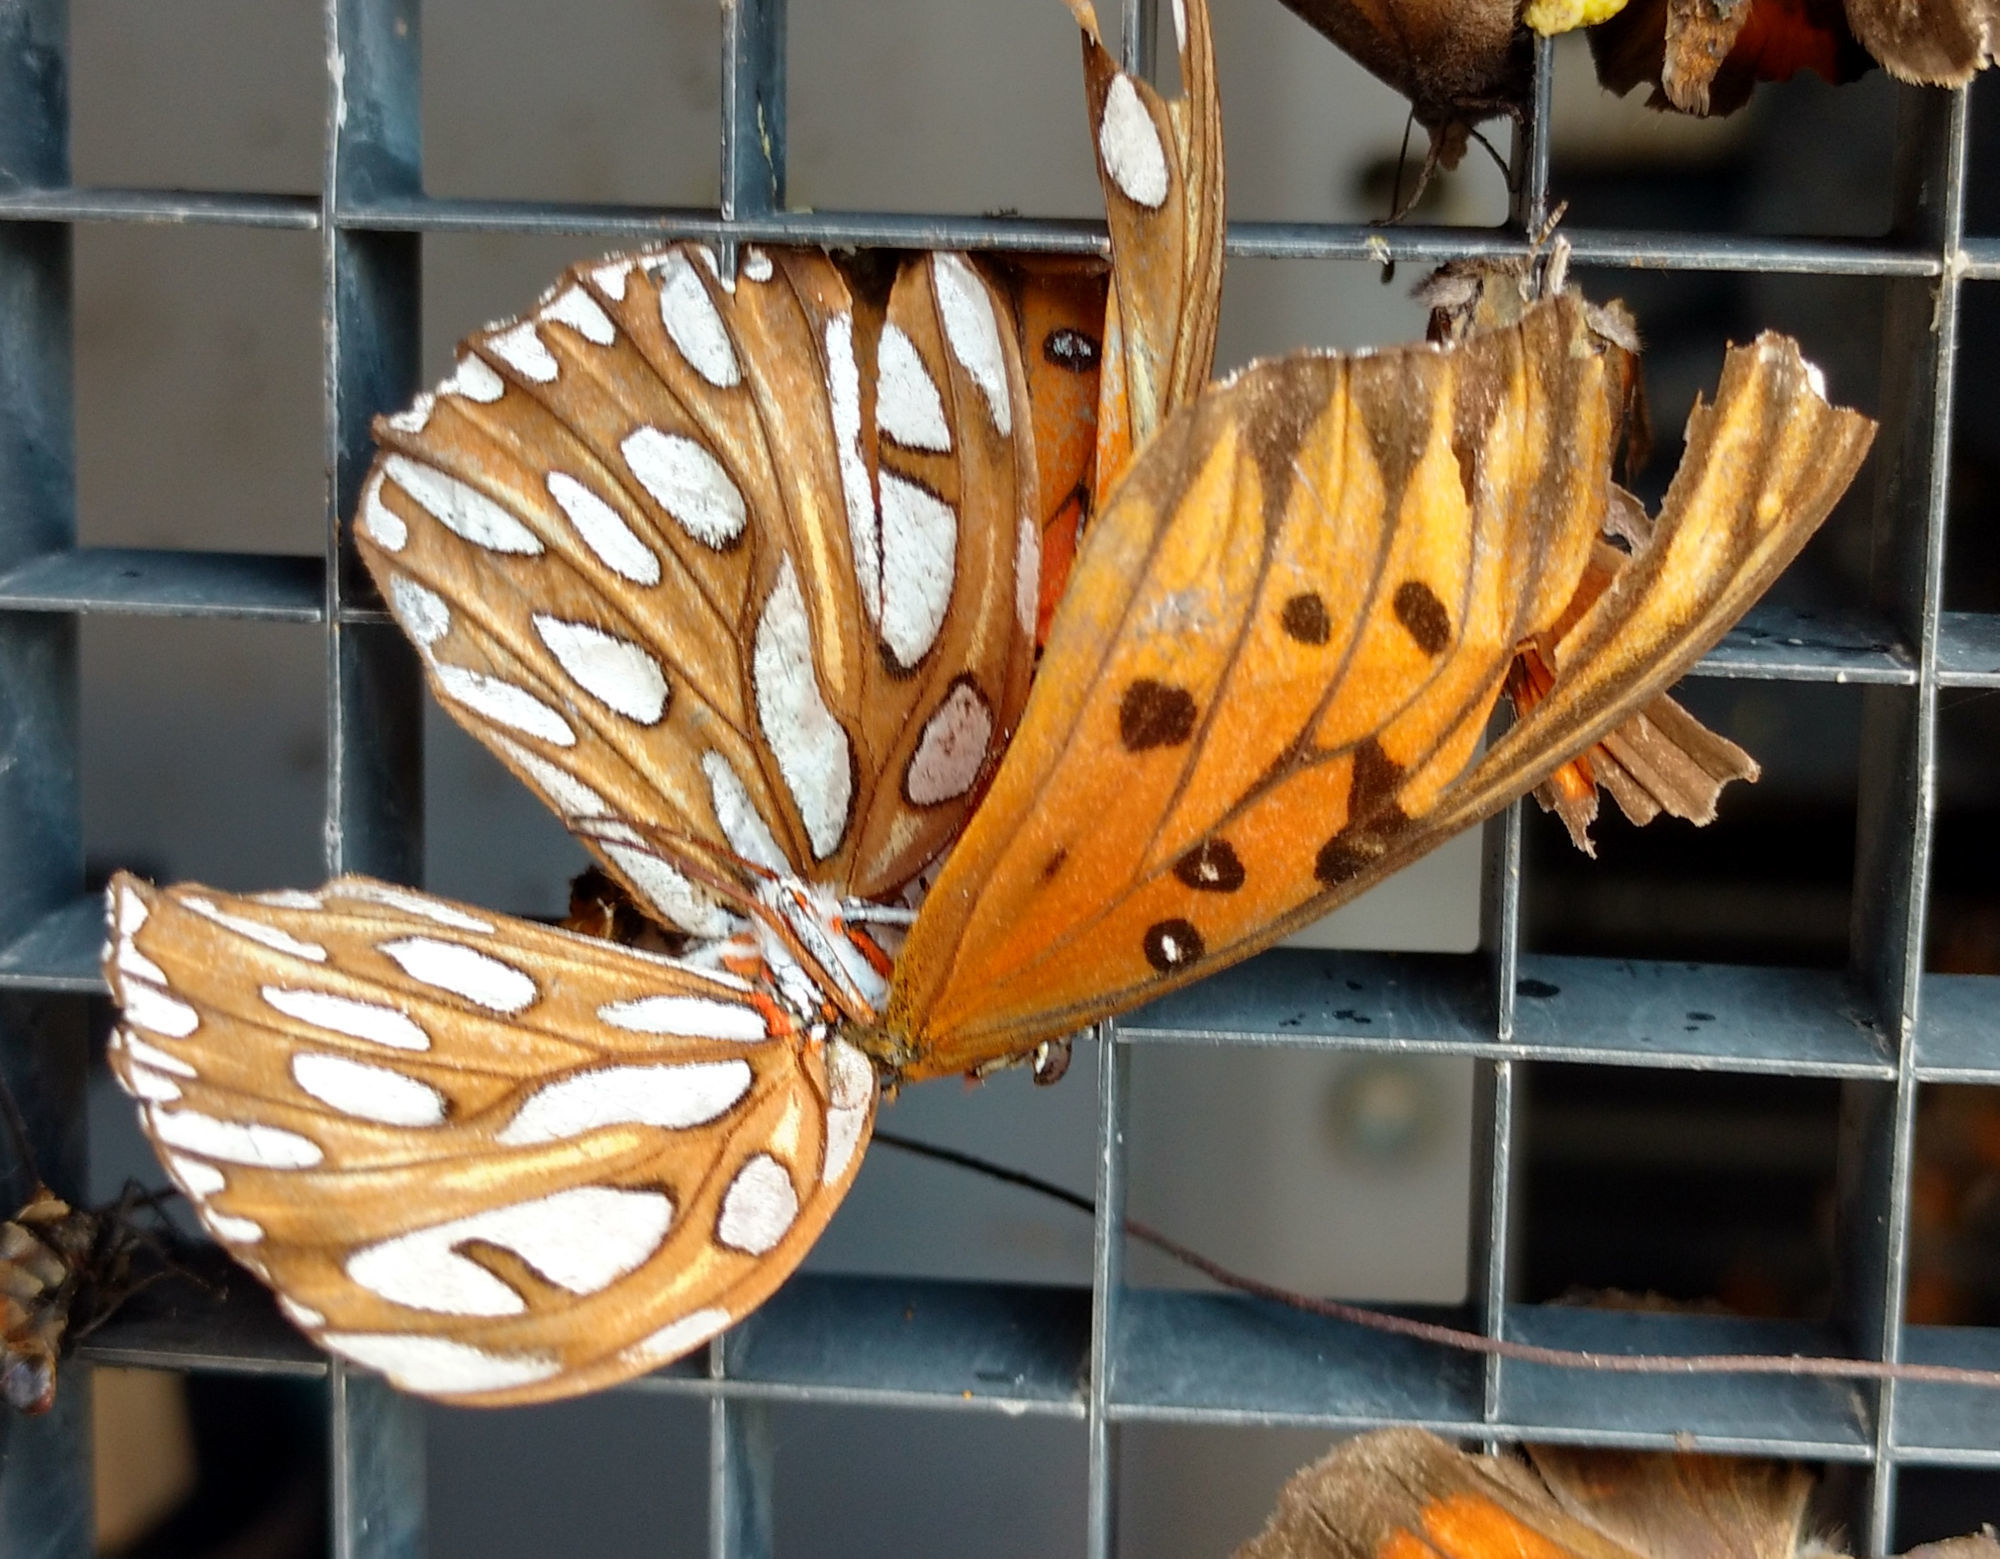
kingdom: Animalia
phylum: Arthropoda
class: Insecta
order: Lepidoptera
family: Nymphalidae
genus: Dione
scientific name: Dione vanillae
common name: Gulf fritillary
